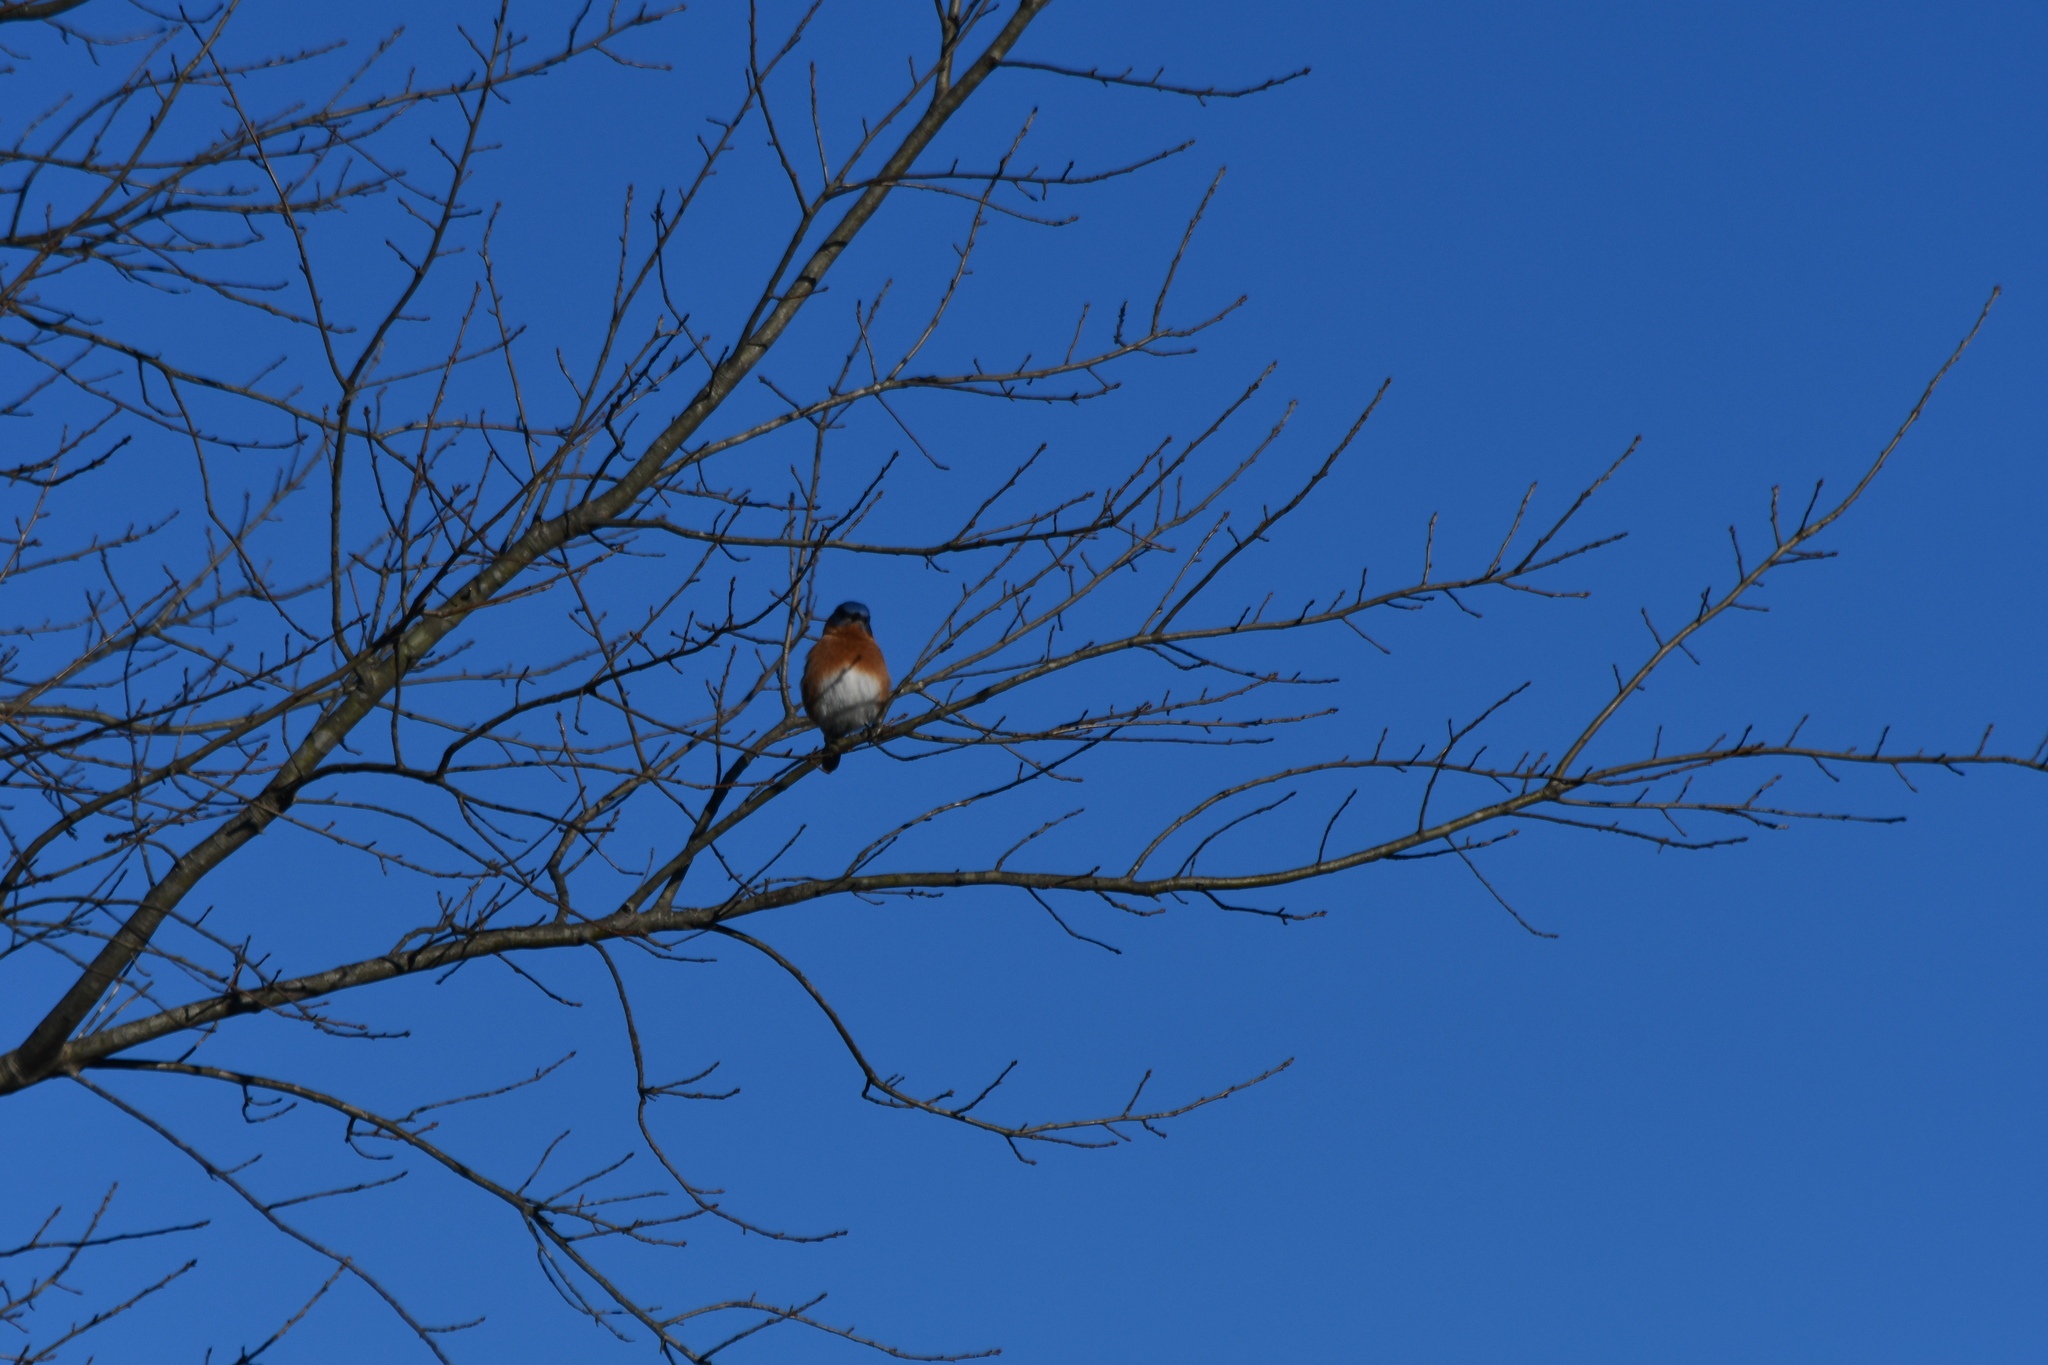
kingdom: Animalia
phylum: Chordata
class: Aves
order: Passeriformes
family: Turdidae
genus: Sialia
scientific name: Sialia sialis
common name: Eastern bluebird
